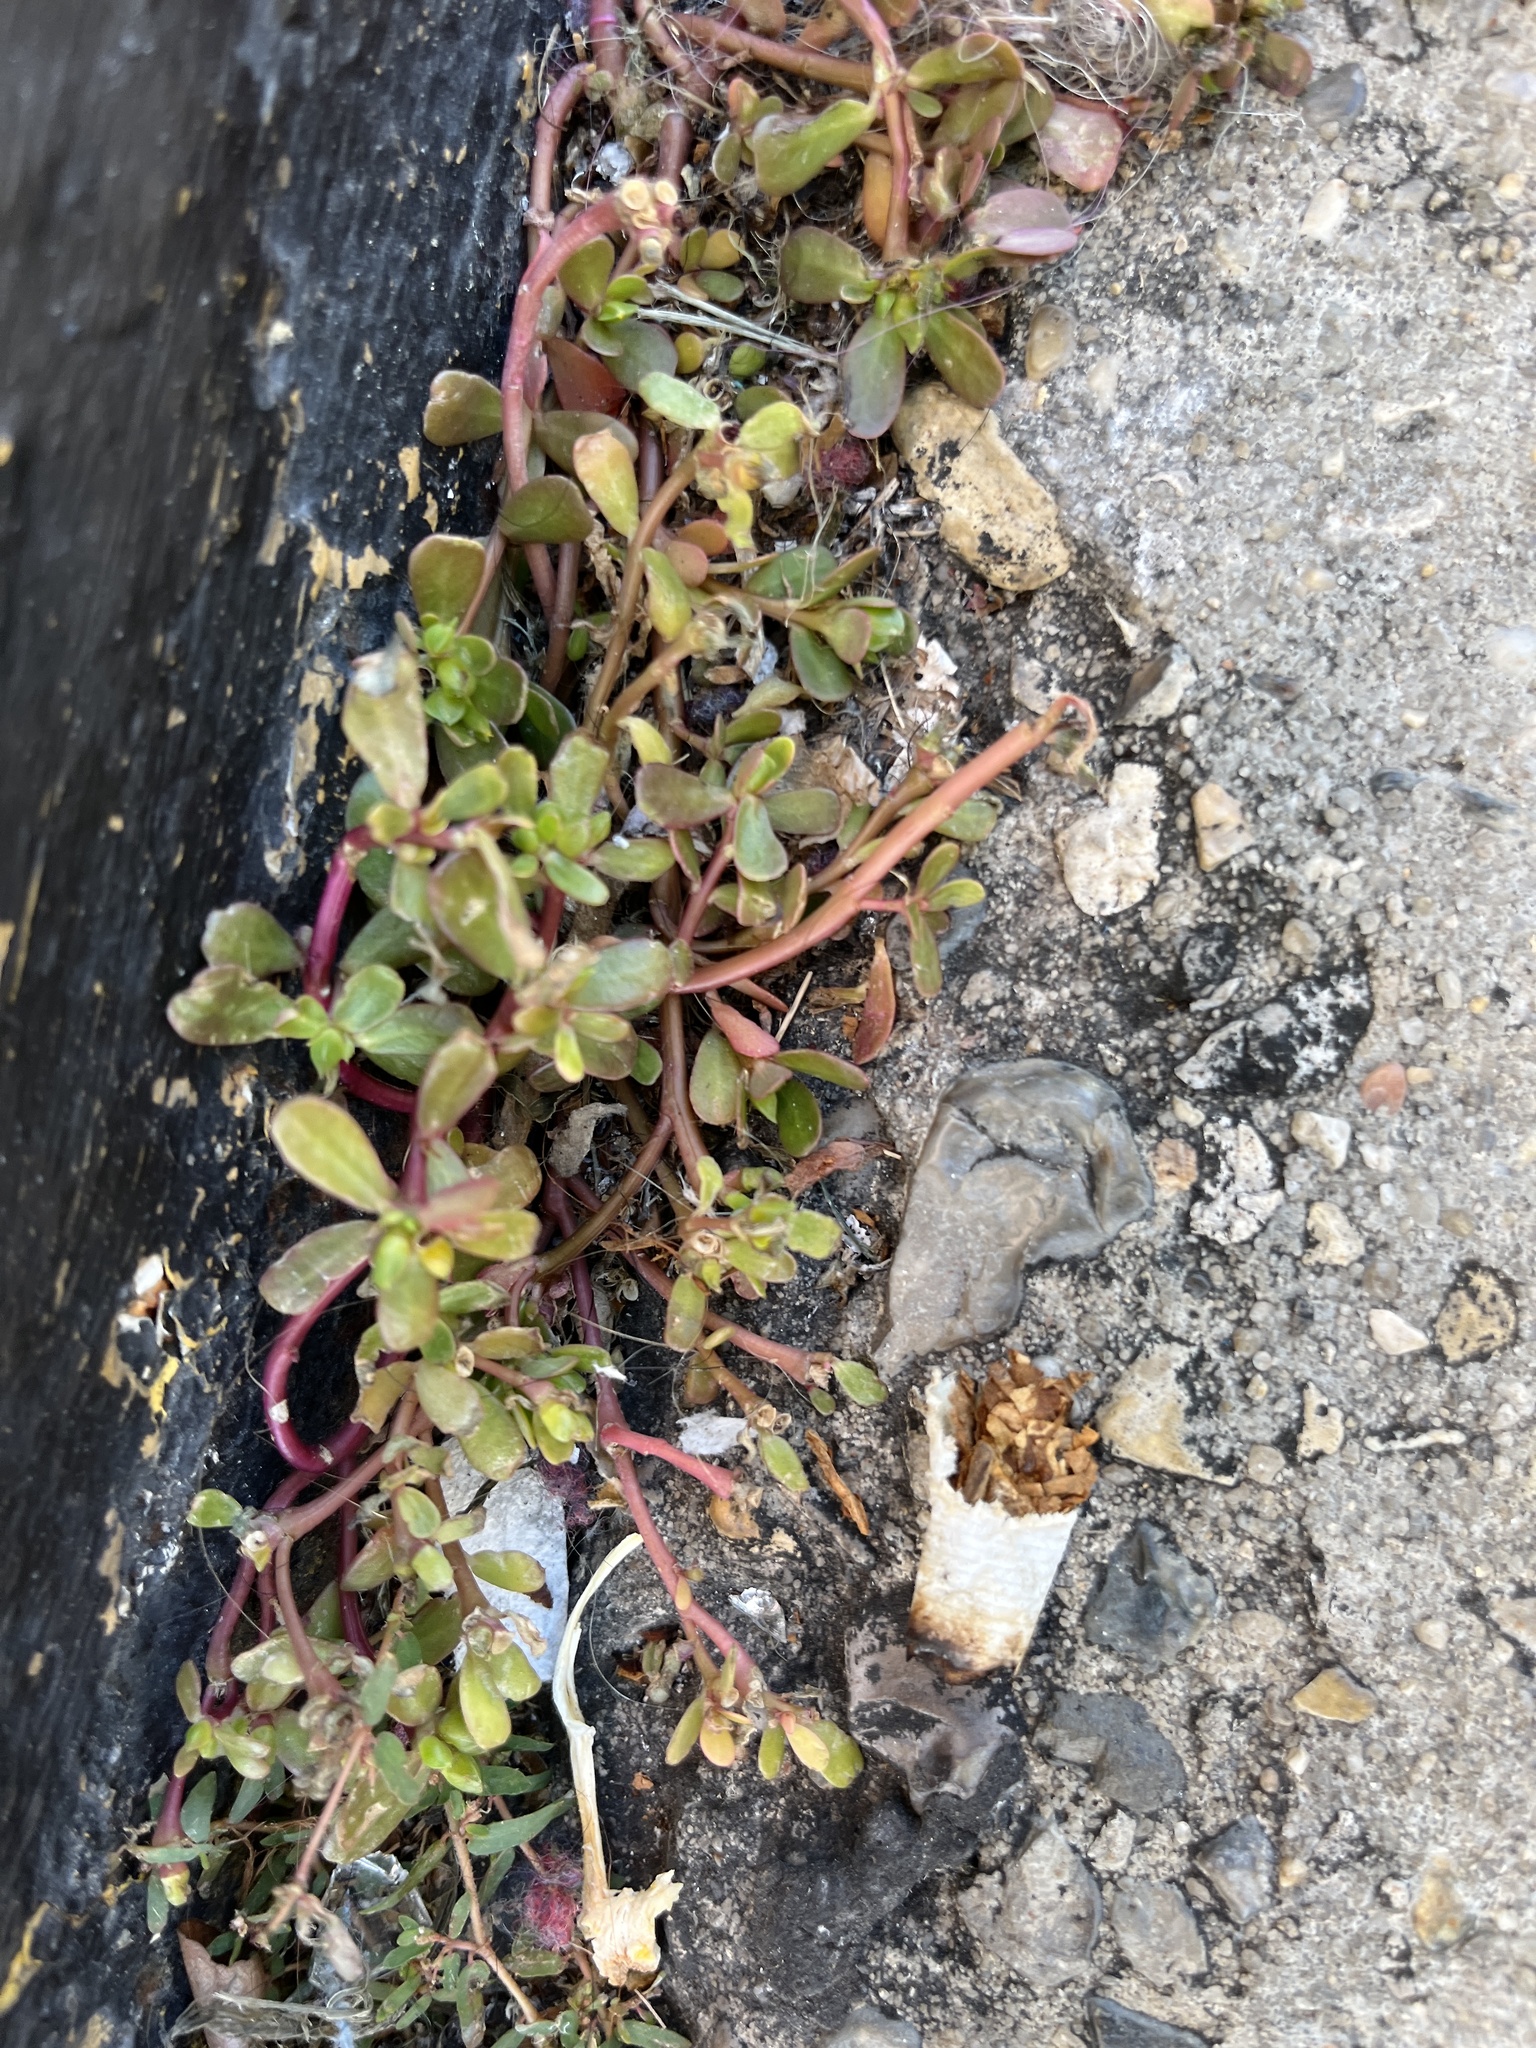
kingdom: Plantae
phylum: Tracheophyta
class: Magnoliopsida
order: Caryophyllales
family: Portulacaceae
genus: Portulaca
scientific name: Portulaca oleracea
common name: Common purslane
